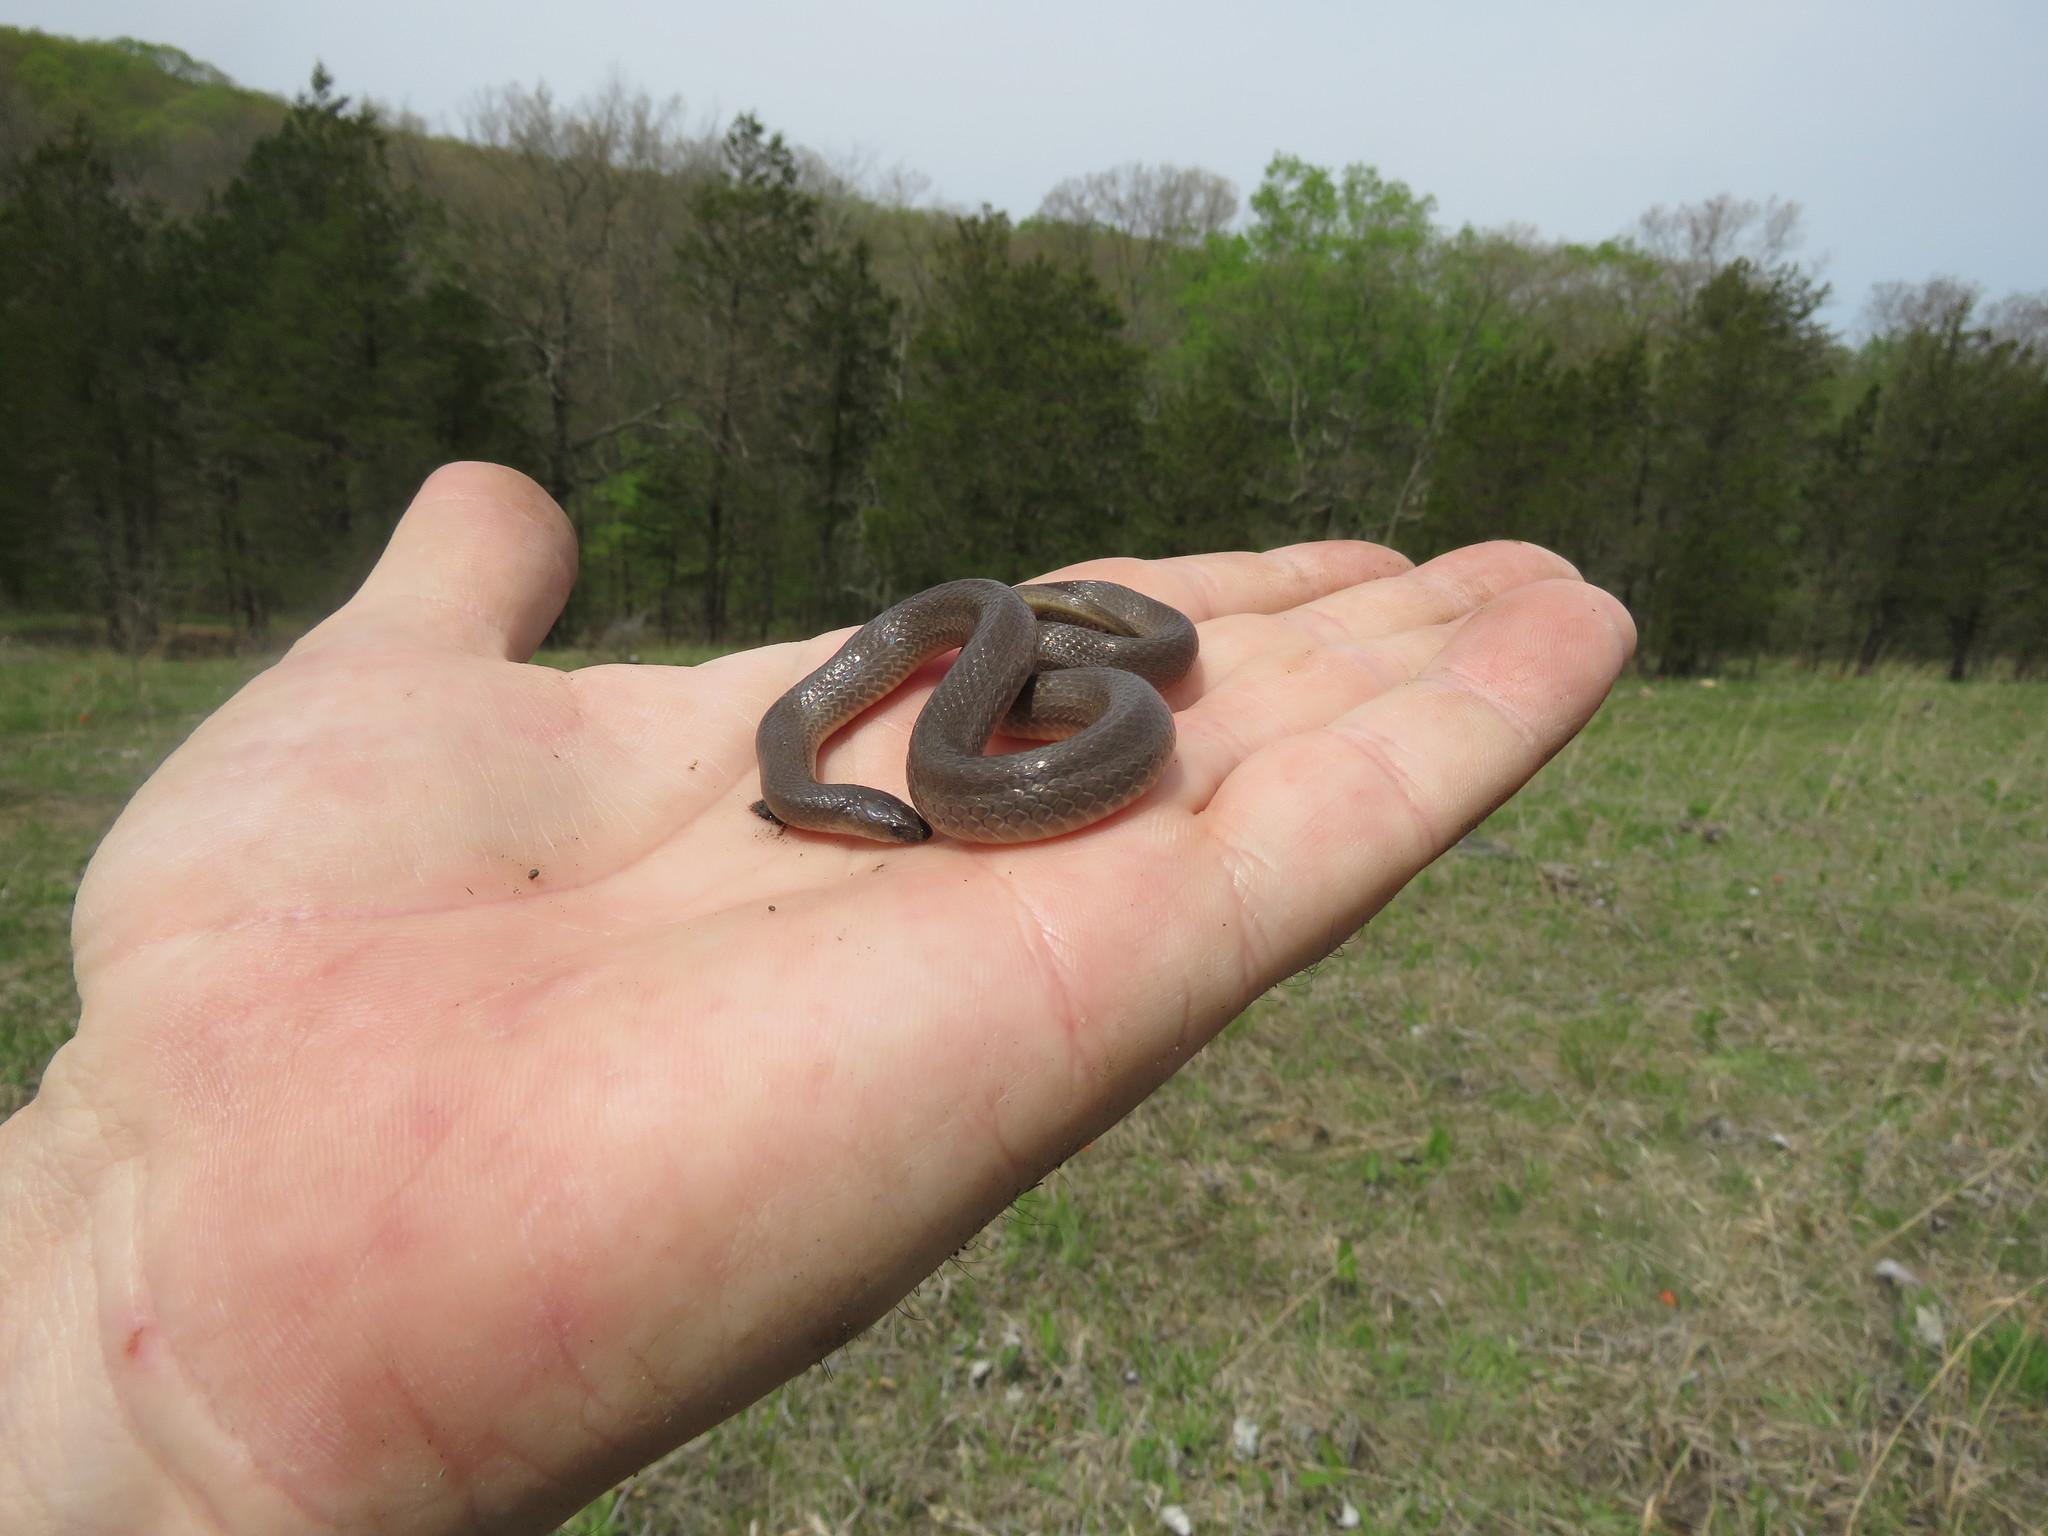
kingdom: Animalia
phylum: Chordata
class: Squamata
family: Colubridae
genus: Haldea
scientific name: Haldea striatula
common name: Rough earth snake
